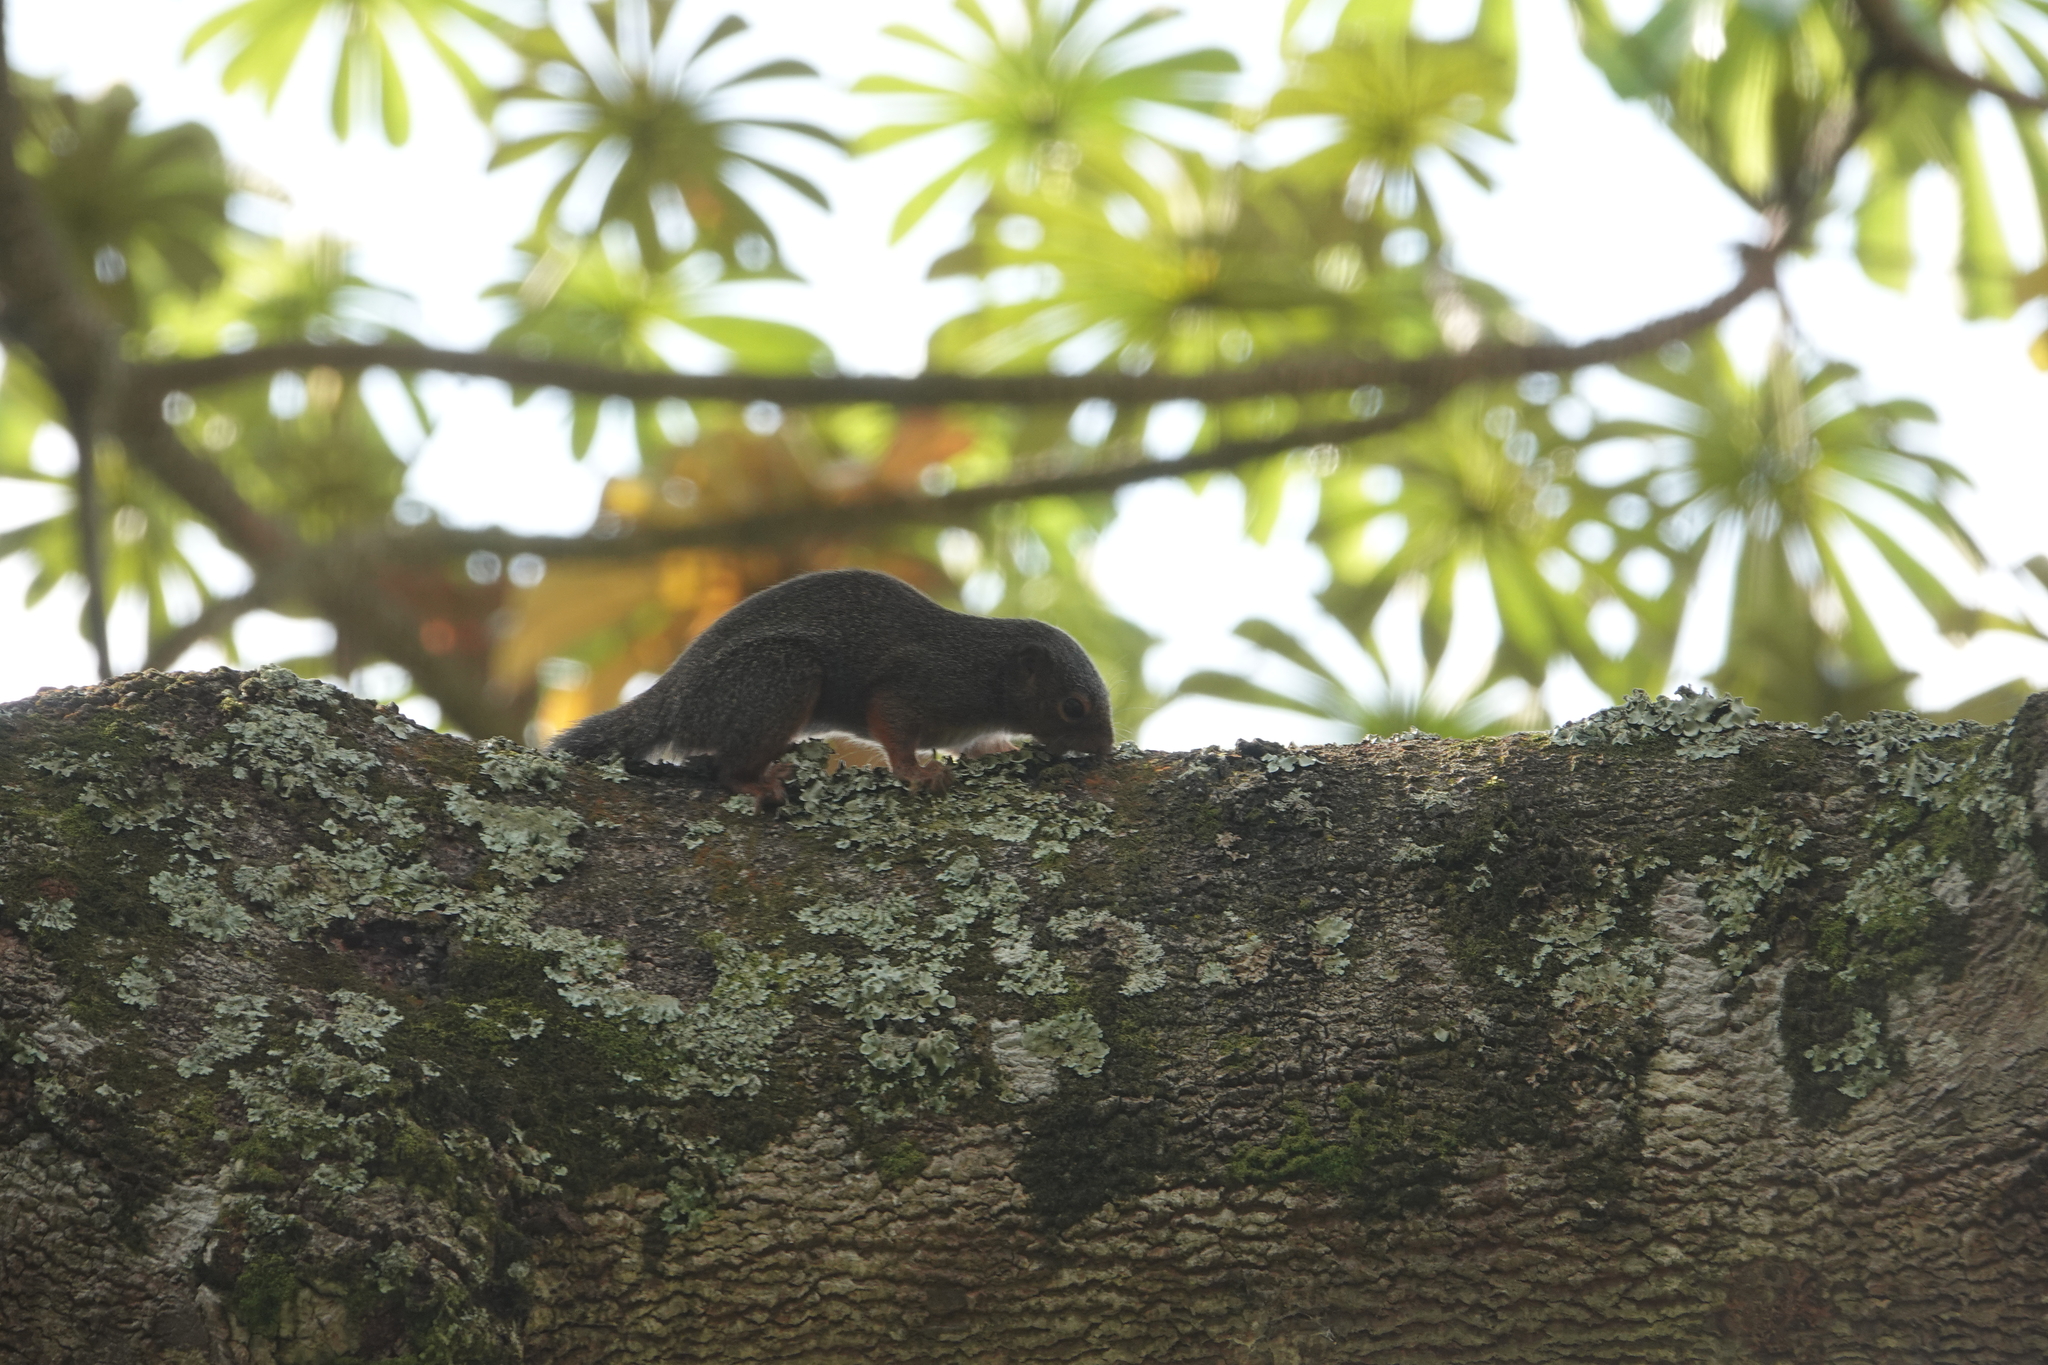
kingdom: Animalia
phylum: Chordata
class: Mammalia
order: Rodentia
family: Sciuridae
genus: Heliosciurus
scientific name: Heliosciurus rufobrachium
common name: Red-legged sun squirrel
